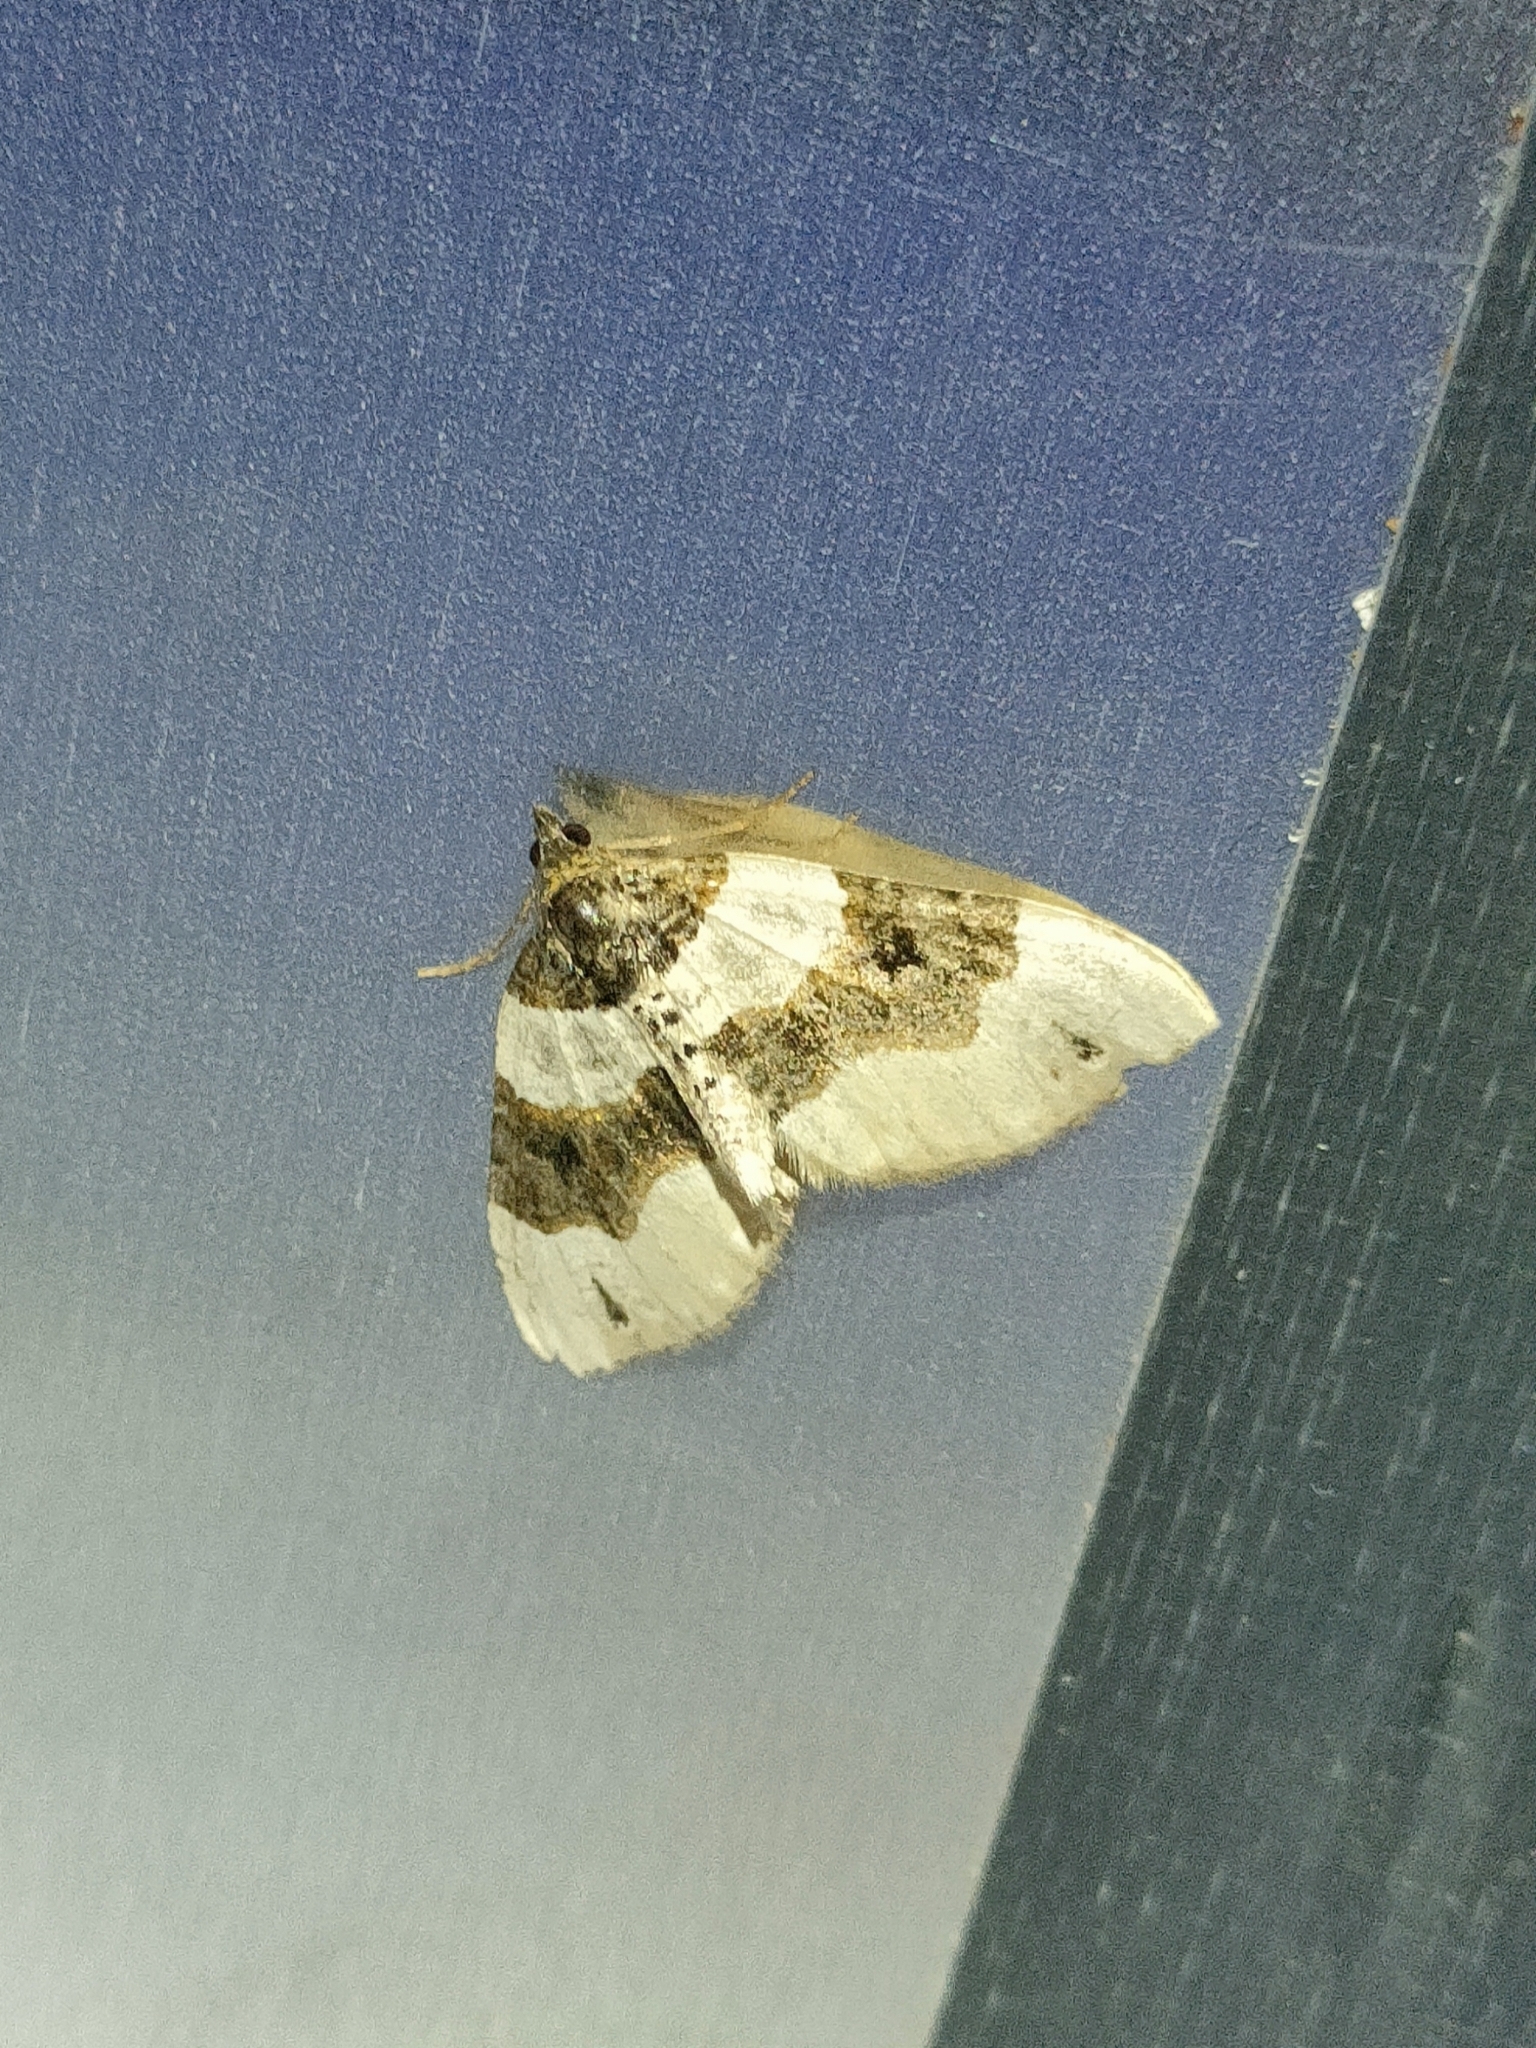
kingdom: Animalia
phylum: Arthropoda
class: Insecta
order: Lepidoptera
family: Geometridae
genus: Cosmorhoe
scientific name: Cosmorhoe ocellata
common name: Purple bar
